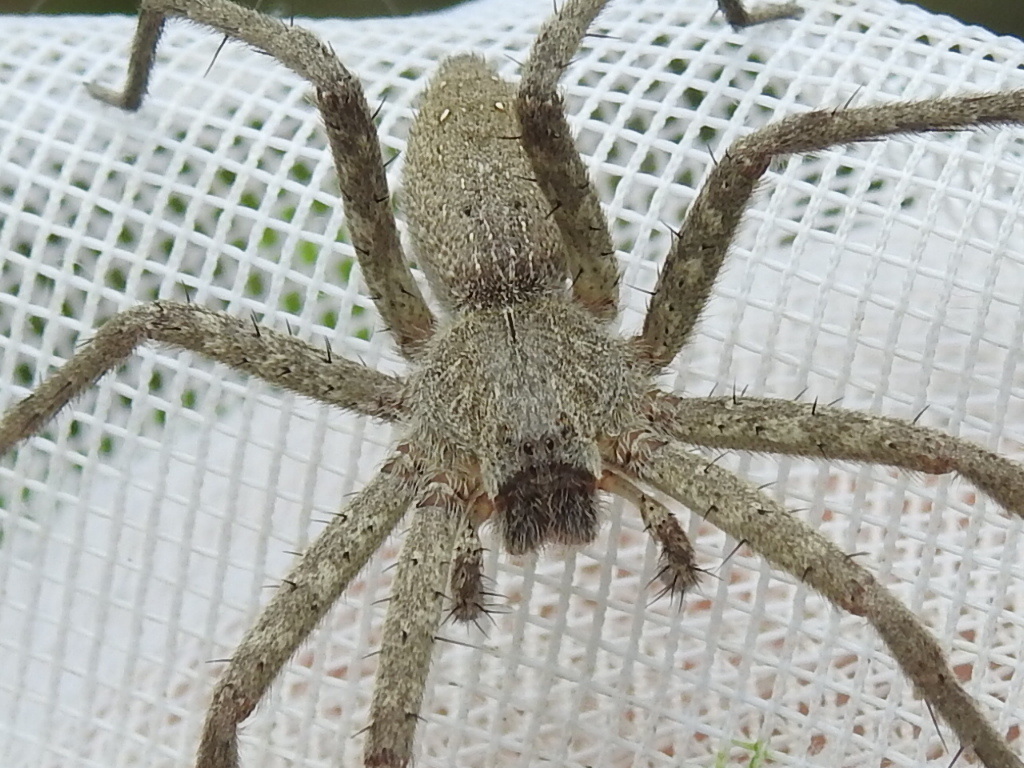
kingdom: Animalia
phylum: Arthropoda
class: Arachnida
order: Araneae
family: Pisauridae
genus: Pisaurina
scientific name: Pisaurina mira
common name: American nursery web spider
